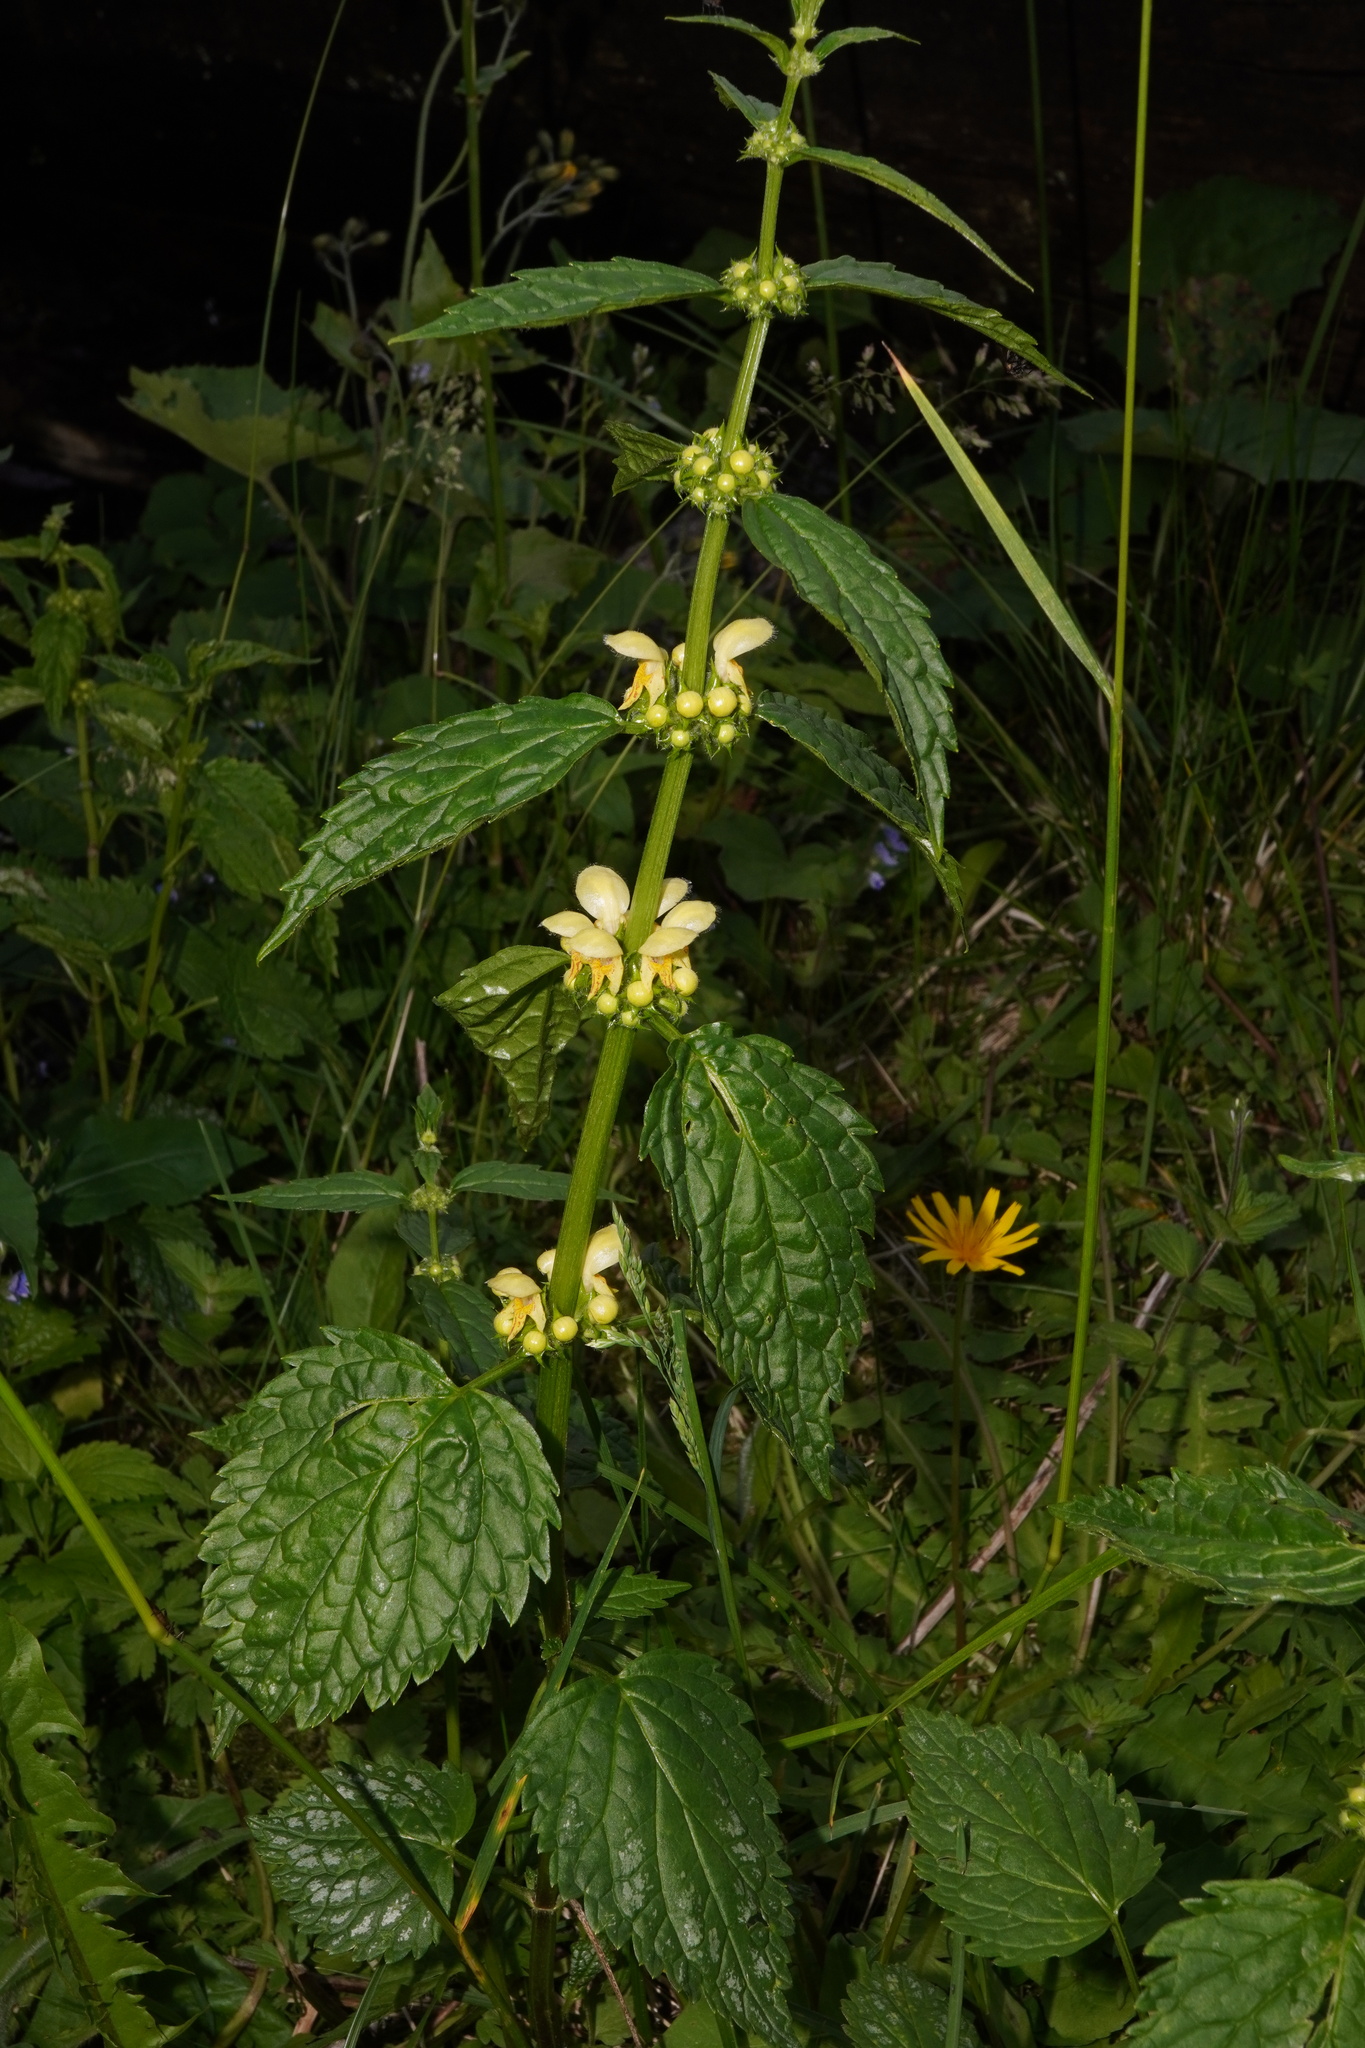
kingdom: Plantae
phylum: Tracheophyta
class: Magnoliopsida
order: Lamiales
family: Lamiaceae
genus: Lamium
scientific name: Lamium galeobdolon
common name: Yellow archangel
